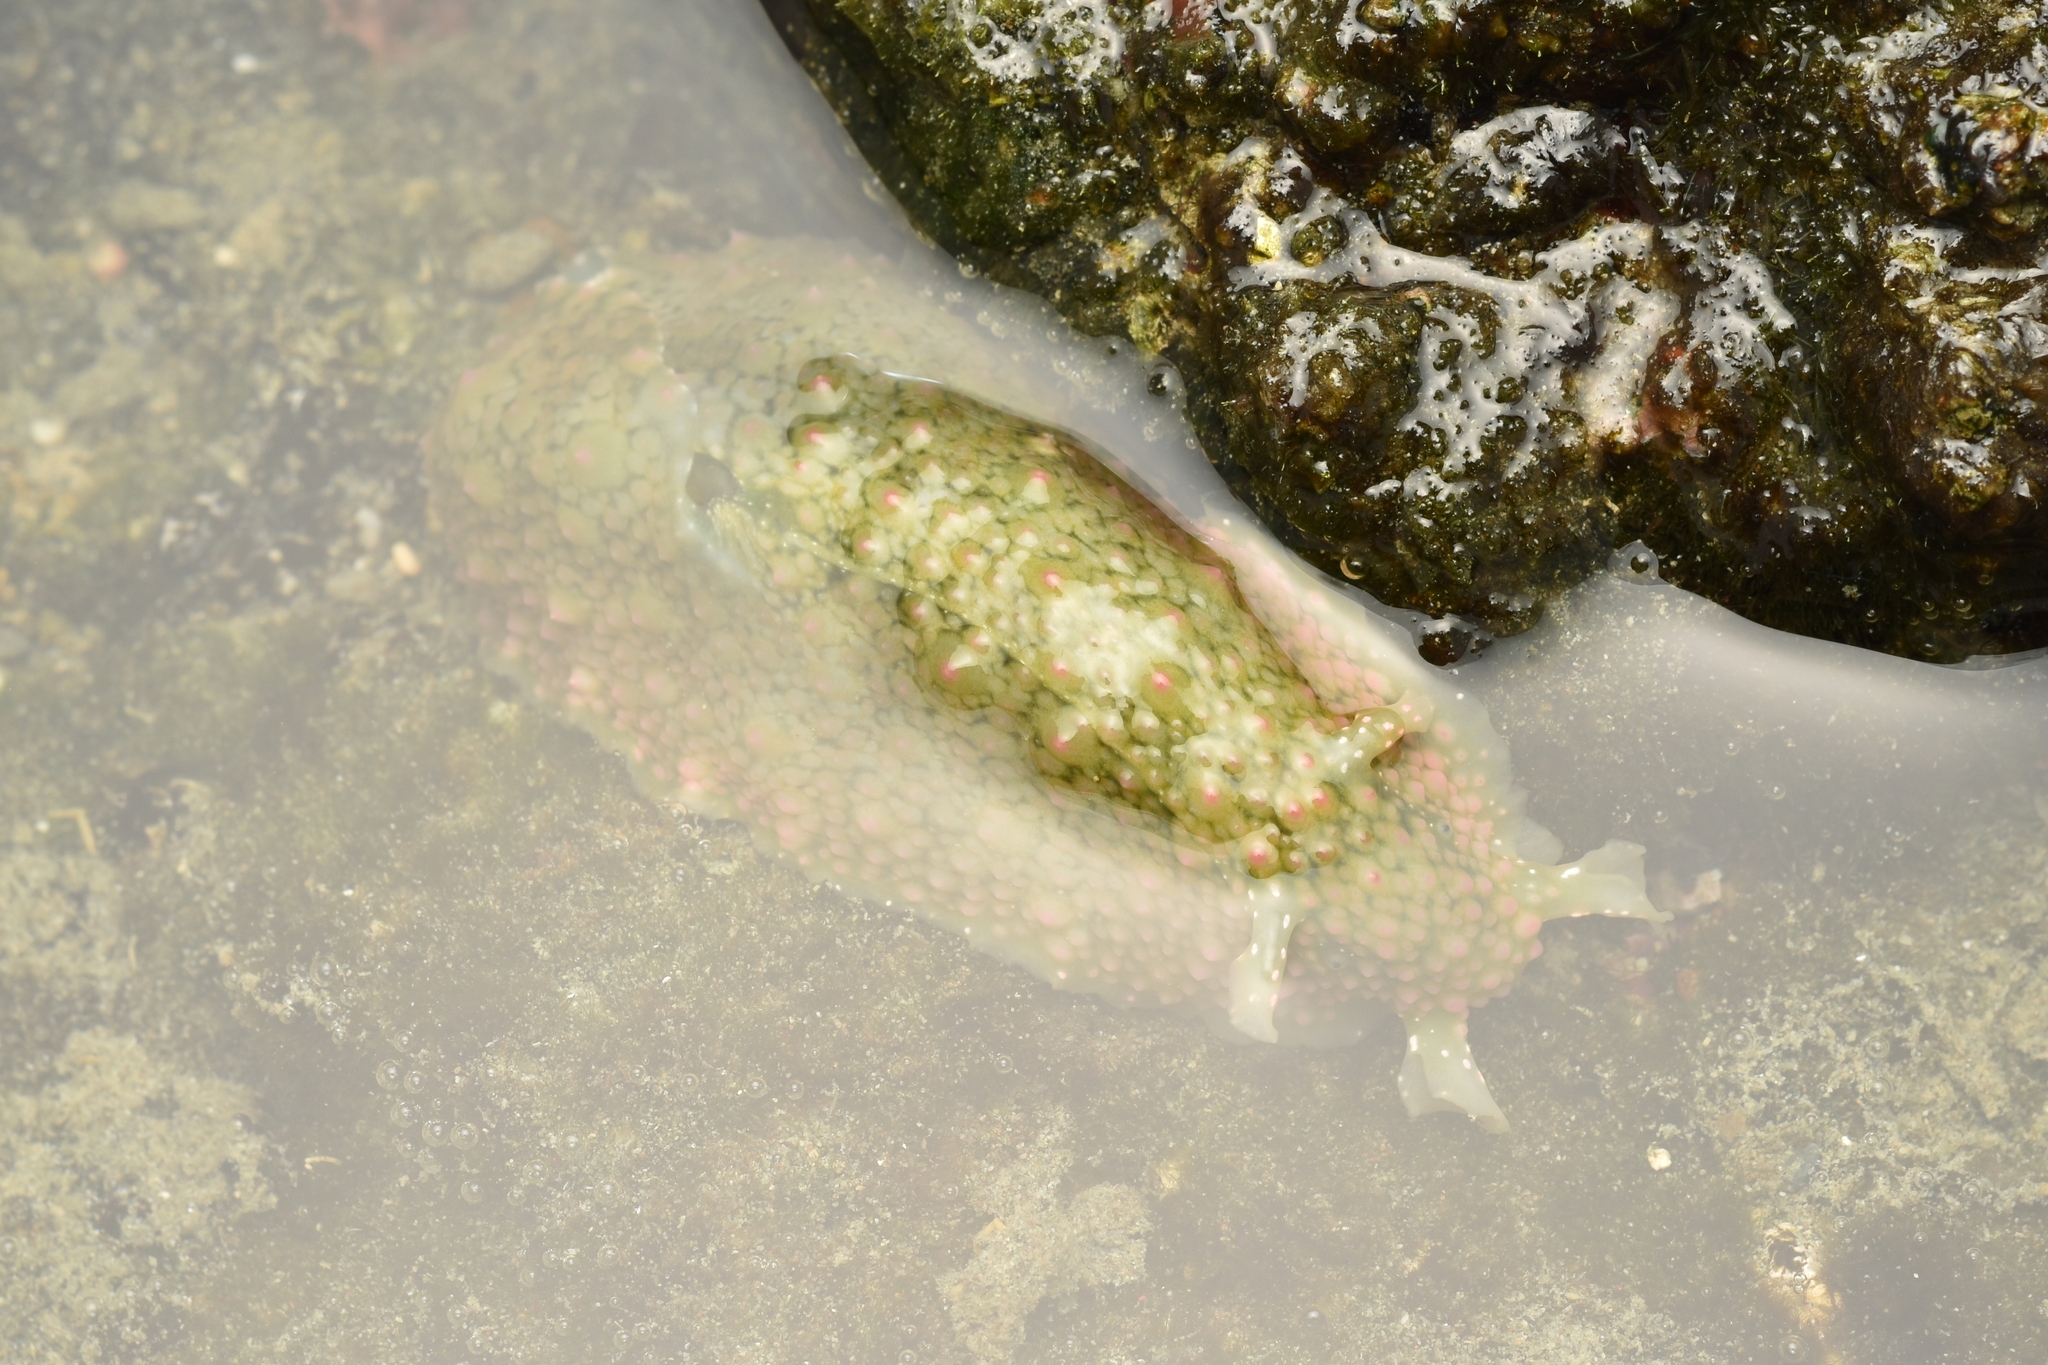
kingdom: Animalia
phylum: Mollusca
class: Gastropoda
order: Aplysiida
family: Aplysiidae
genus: Dolabrifera
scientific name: Dolabrifera nicaraguana
